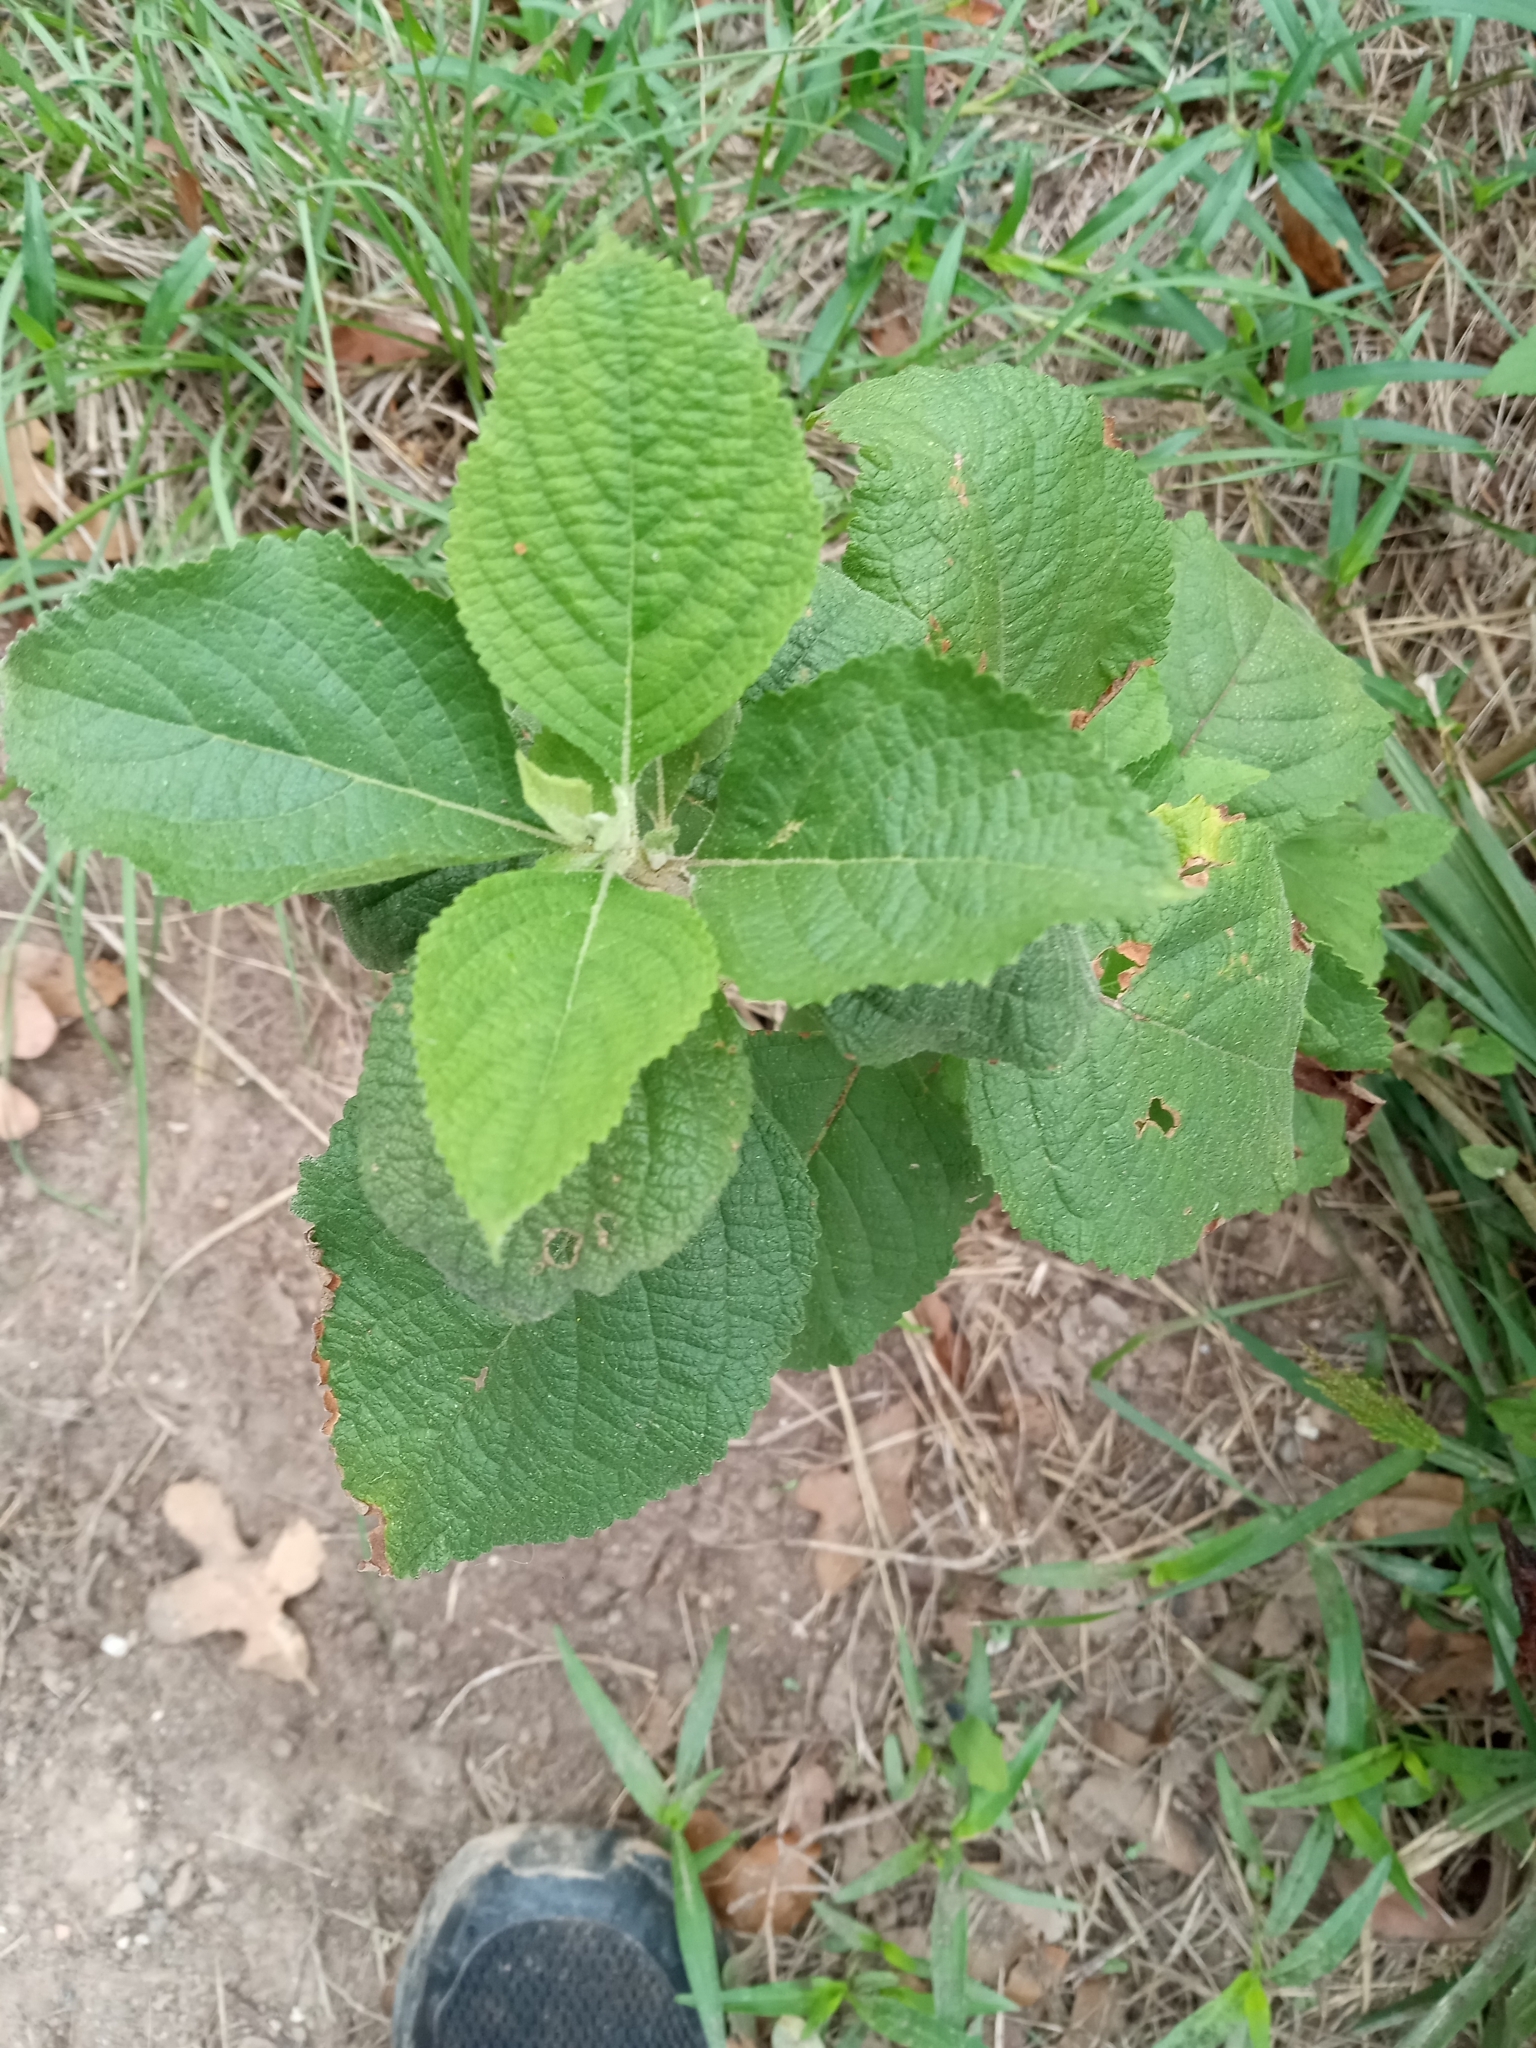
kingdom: Plantae
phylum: Tracheophyta
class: Magnoliopsida
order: Lamiales
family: Lamiaceae
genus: Callicarpa
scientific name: Callicarpa americana
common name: American beautyberry
